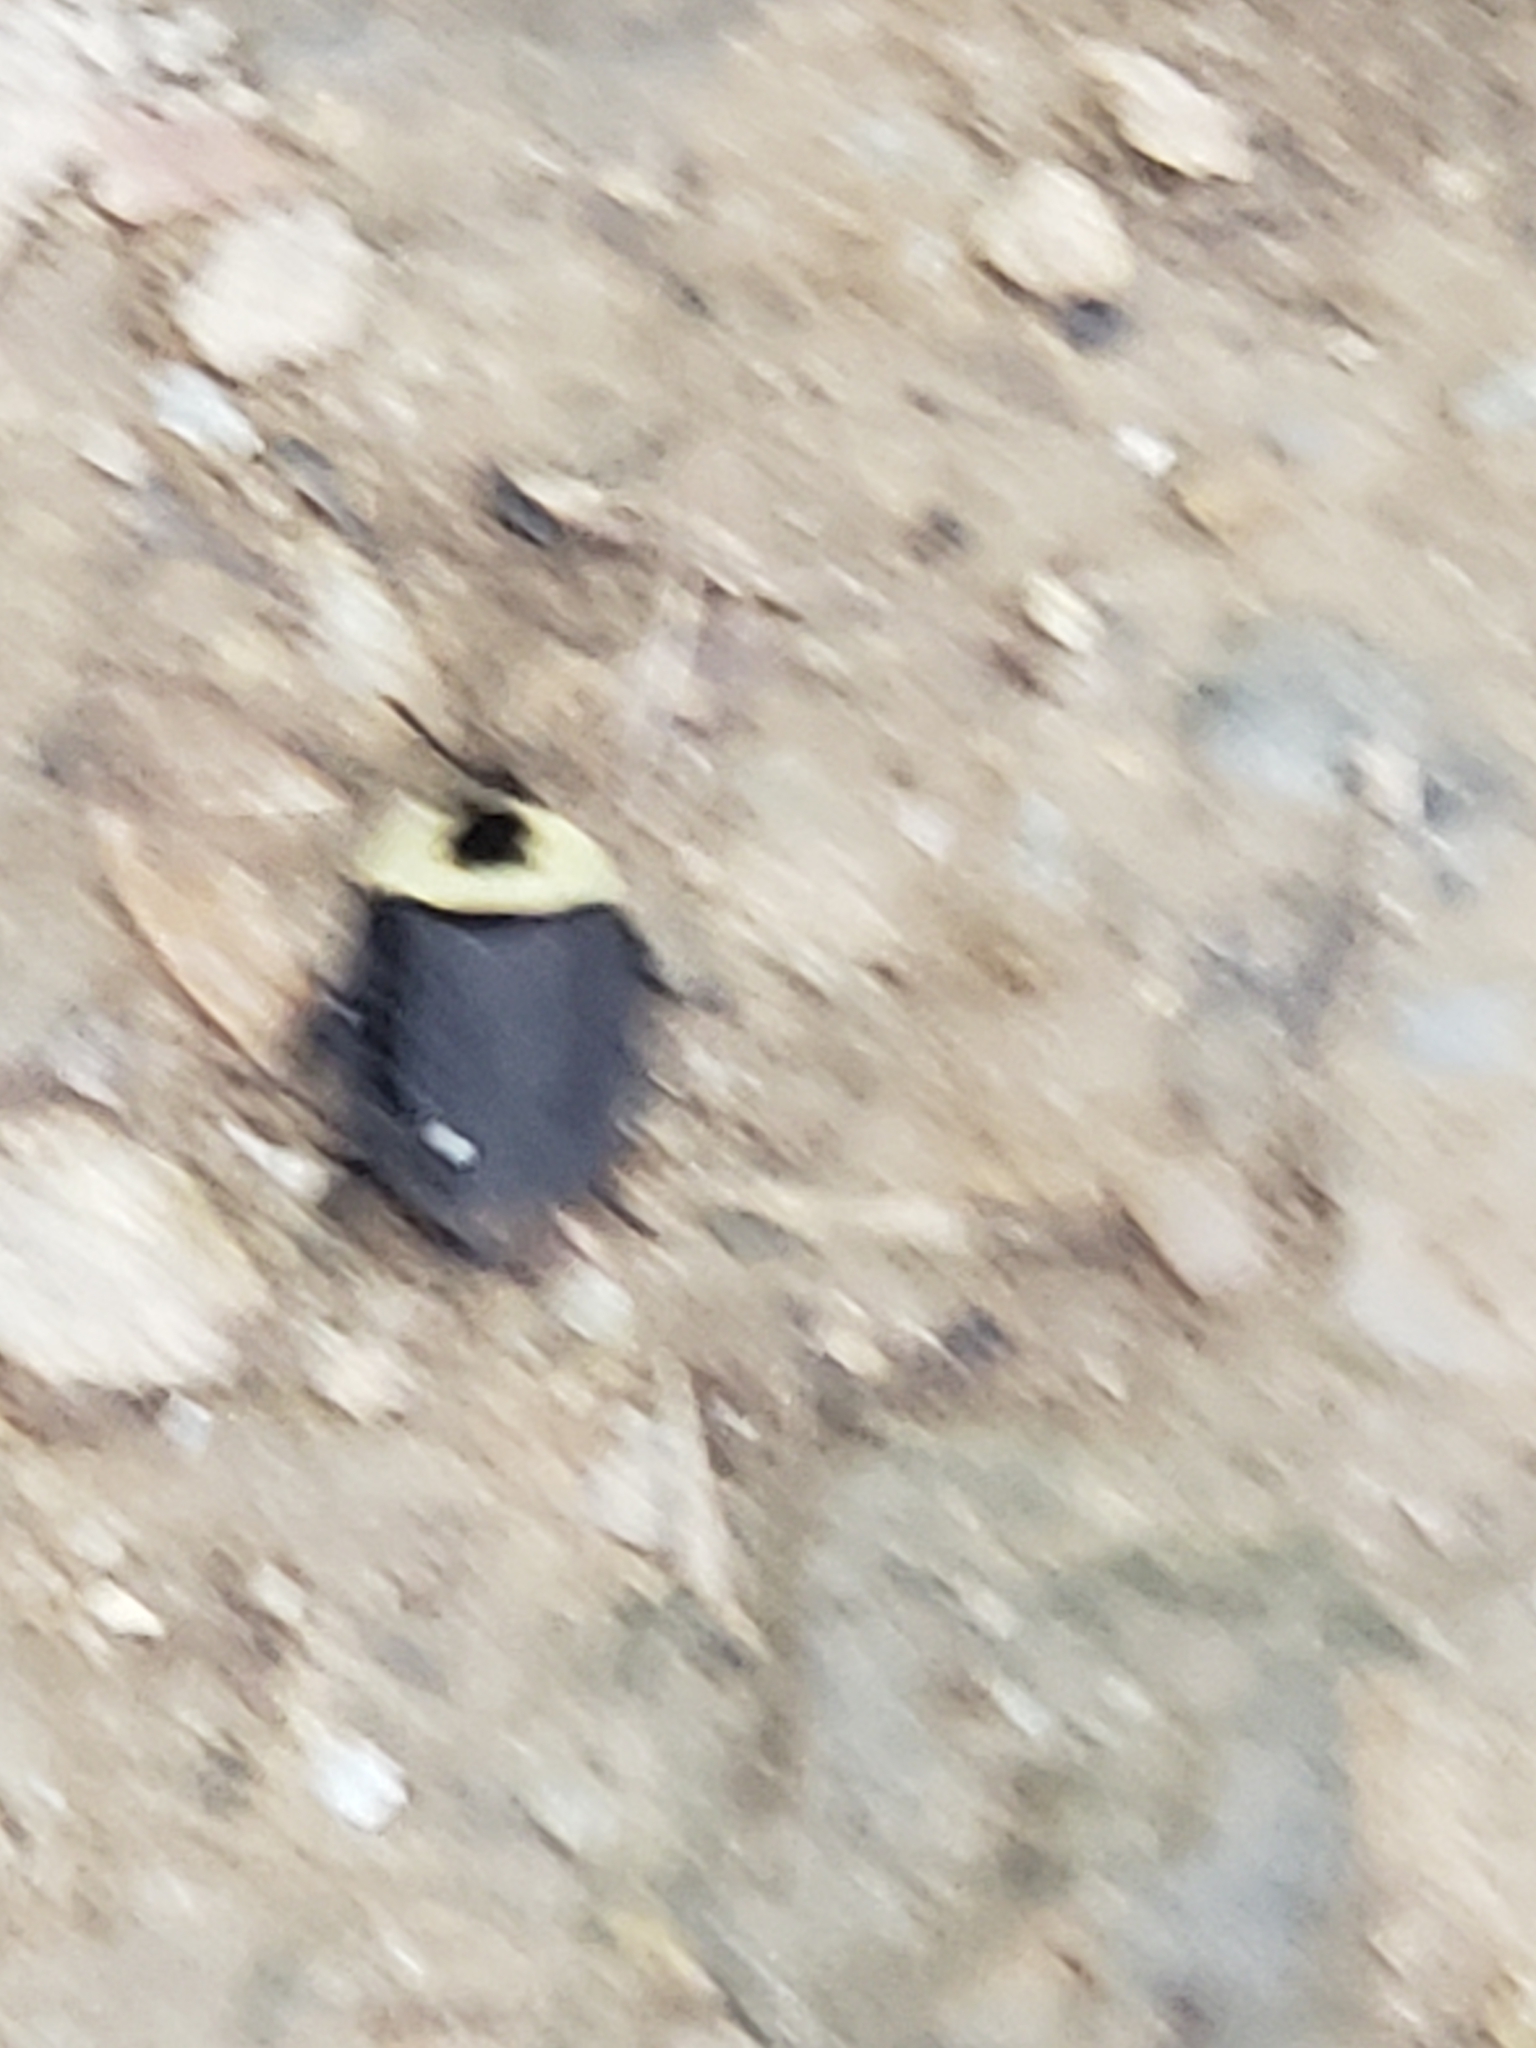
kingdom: Animalia
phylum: Arthropoda
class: Insecta
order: Coleoptera
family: Staphylinidae
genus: Necrophila
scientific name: Necrophila americana
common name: American carrion beetle
